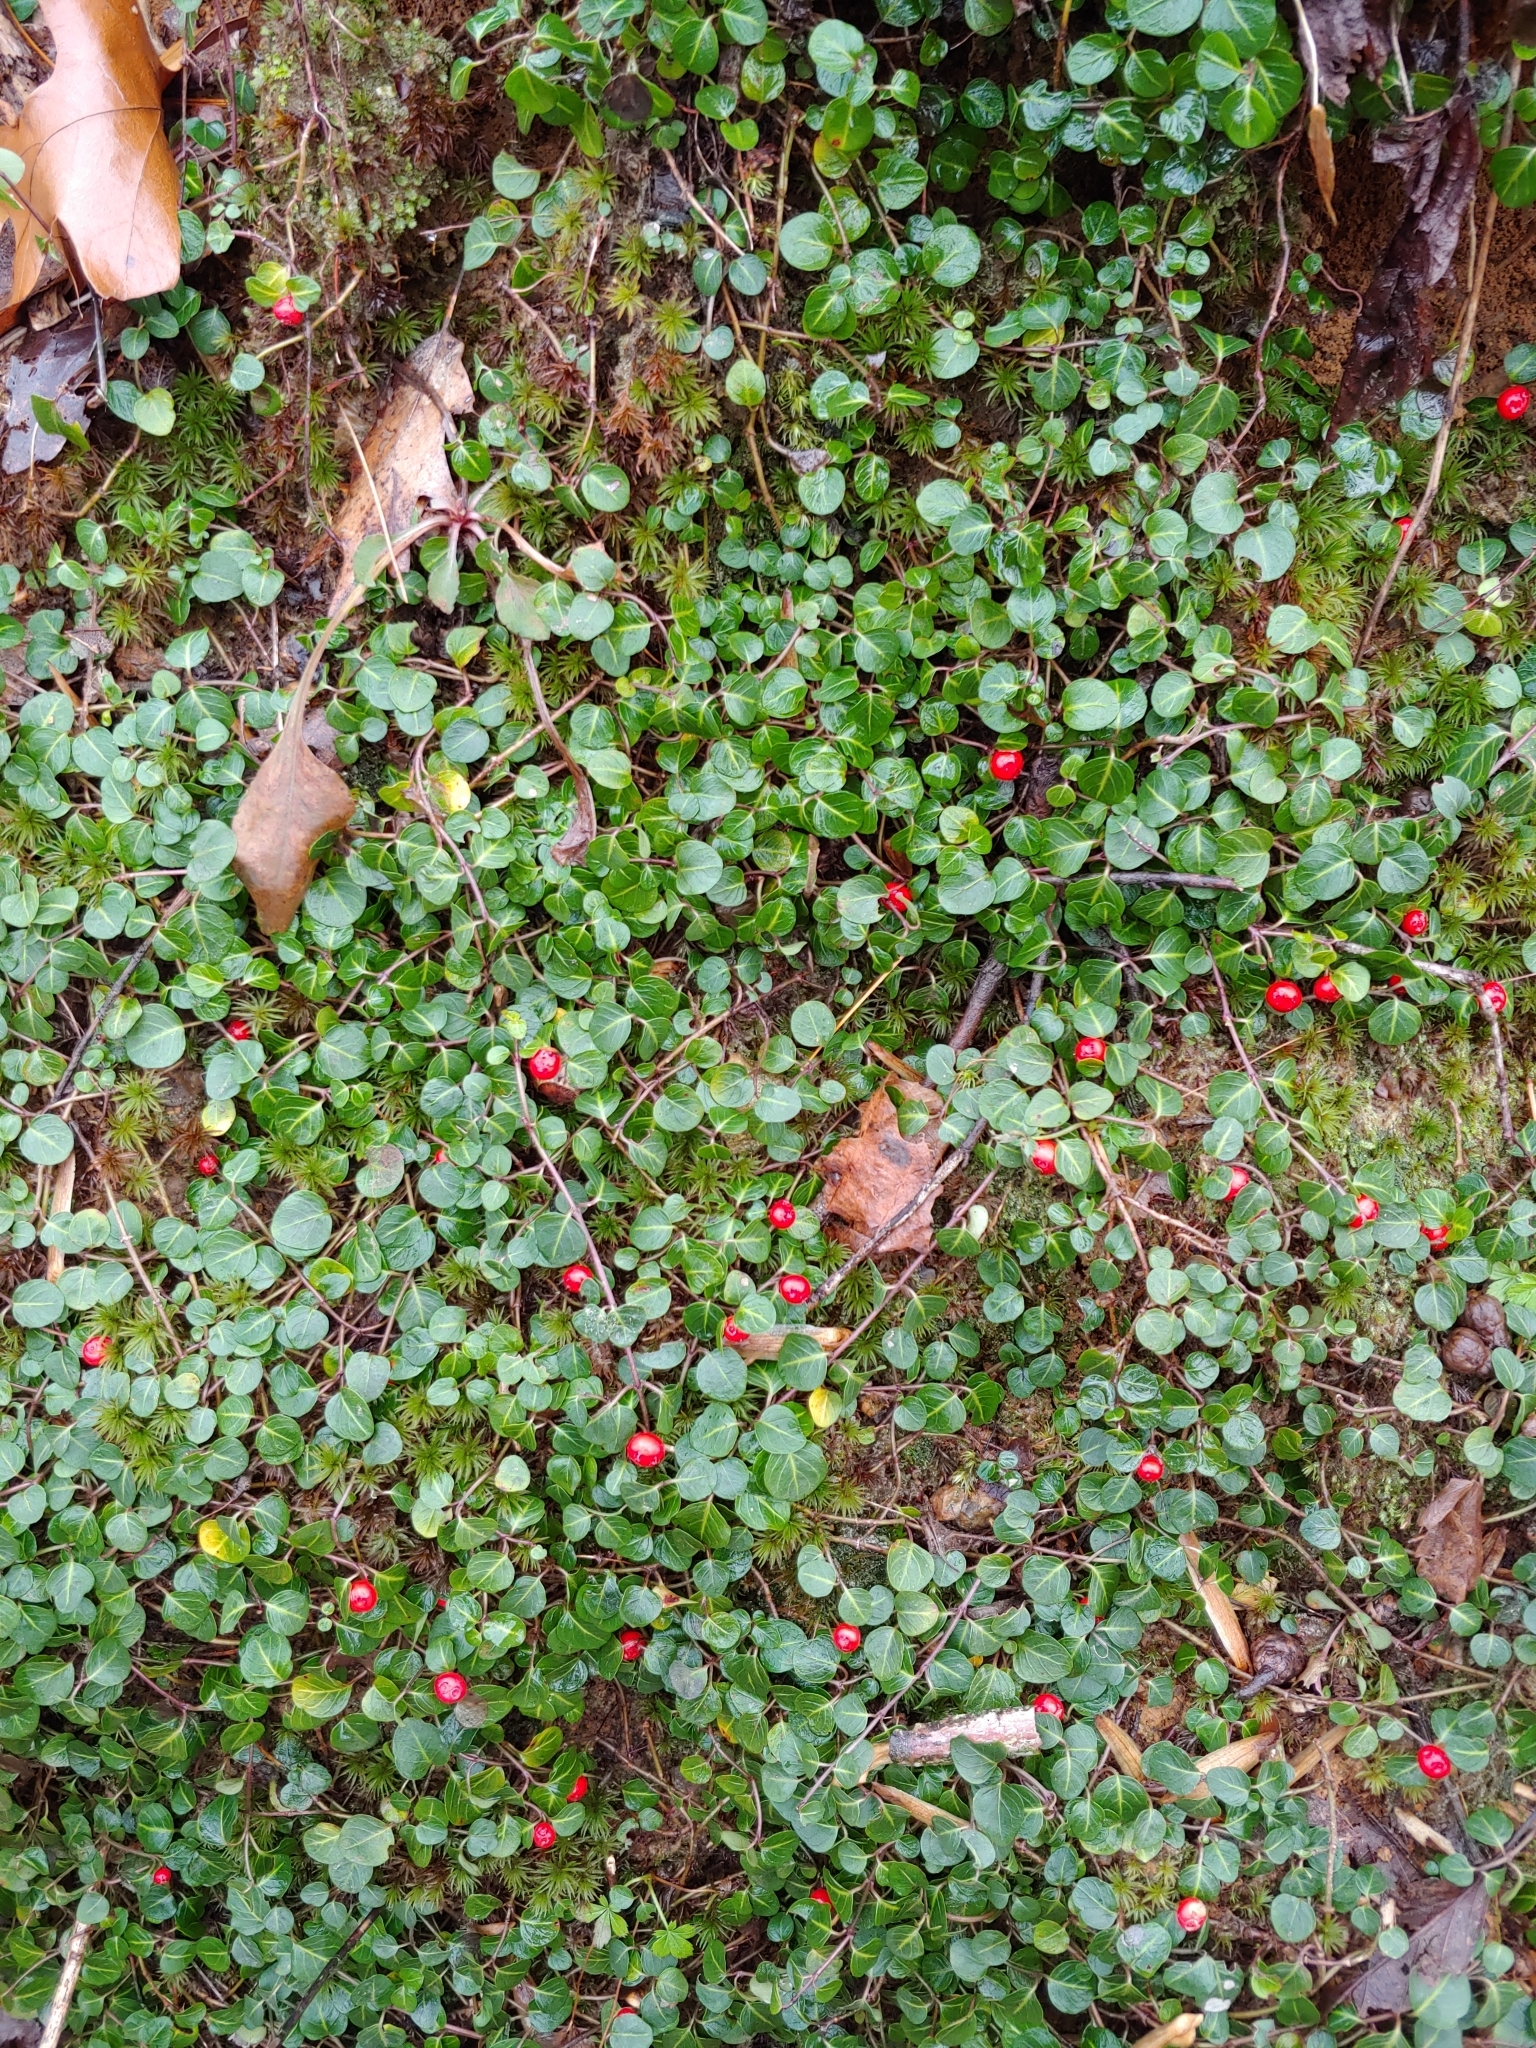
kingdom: Plantae
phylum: Tracheophyta
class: Magnoliopsida
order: Gentianales
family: Rubiaceae
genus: Mitchella
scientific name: Mitchella repens
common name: Partridge-berry
